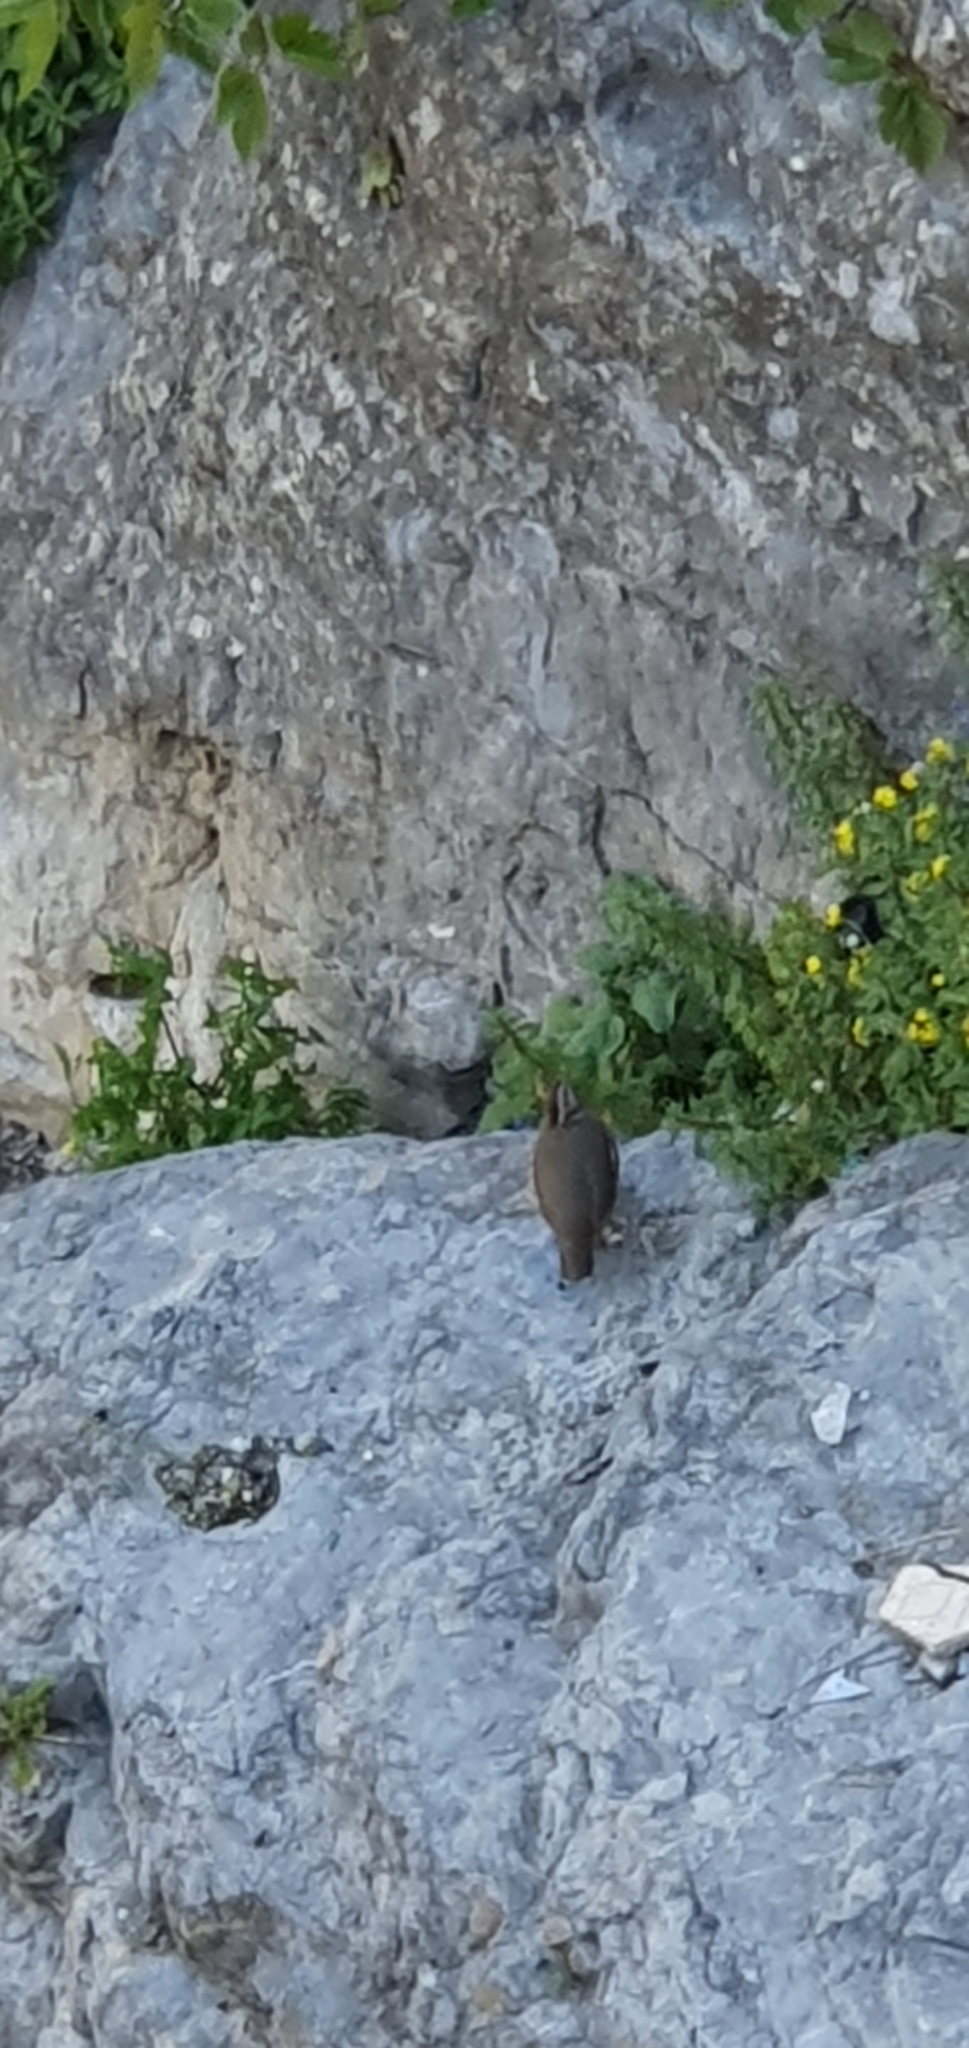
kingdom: Animalia
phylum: Chordata
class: Aves
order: Galliformes
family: Phasianidae
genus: Alectoris
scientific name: Alectoris barbara
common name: Barbary partridge
